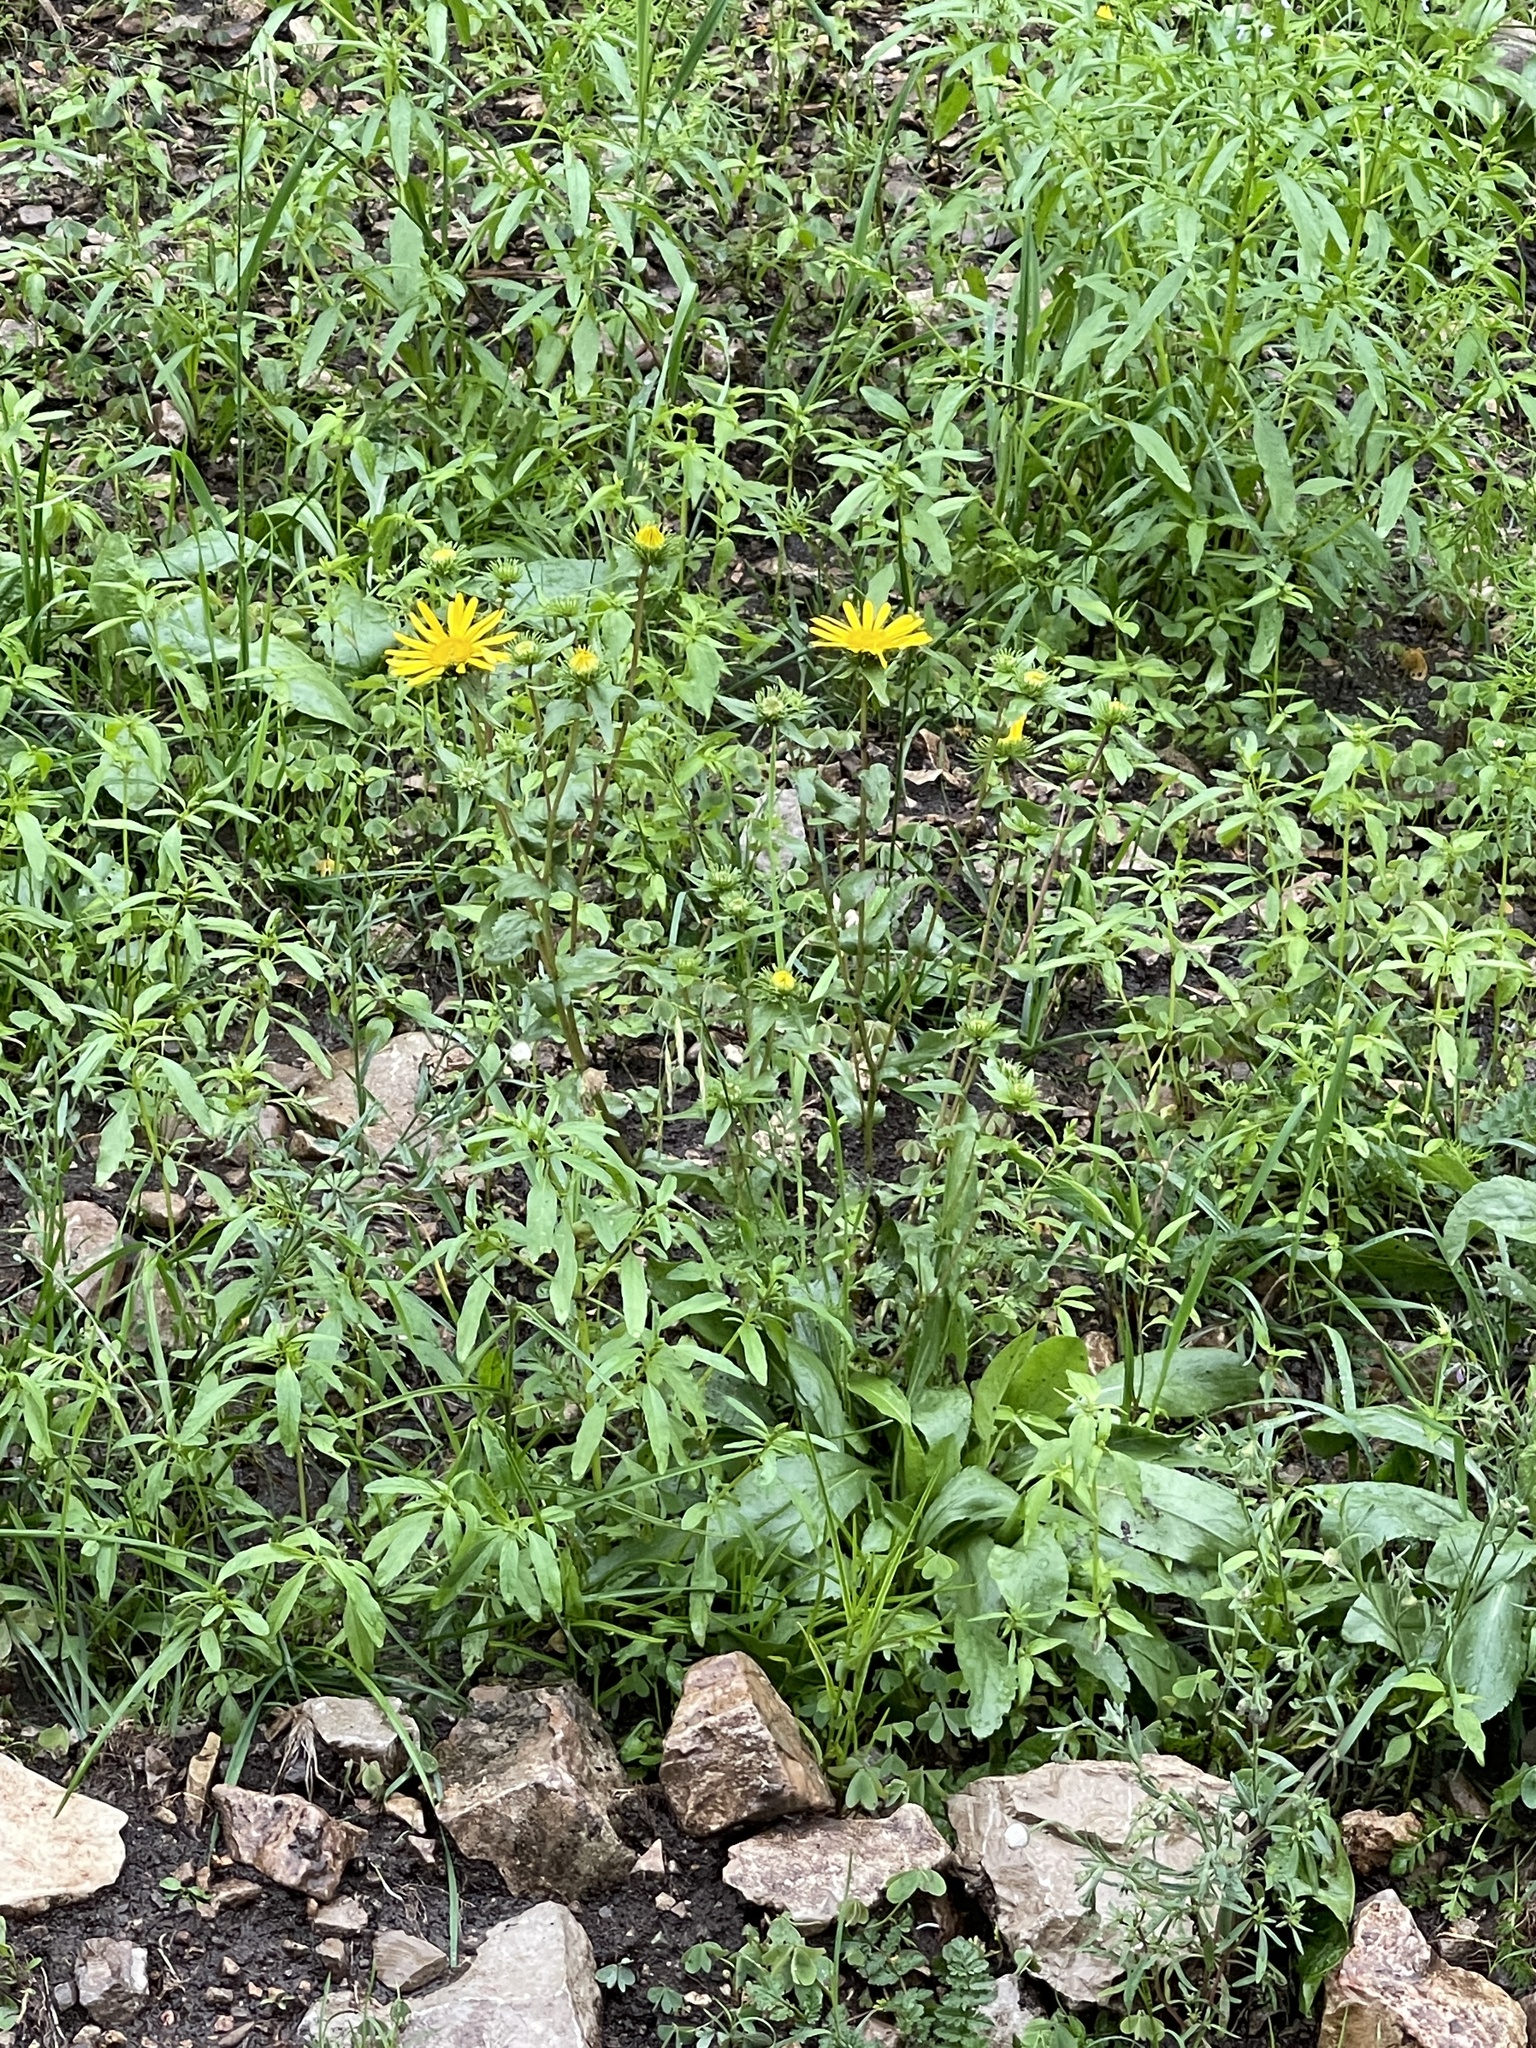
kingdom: Plantae
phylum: Tracheophyta
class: Magnoliopsida
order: Asterales
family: Asteraceae
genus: Grindelia
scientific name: Grindelia scabra
